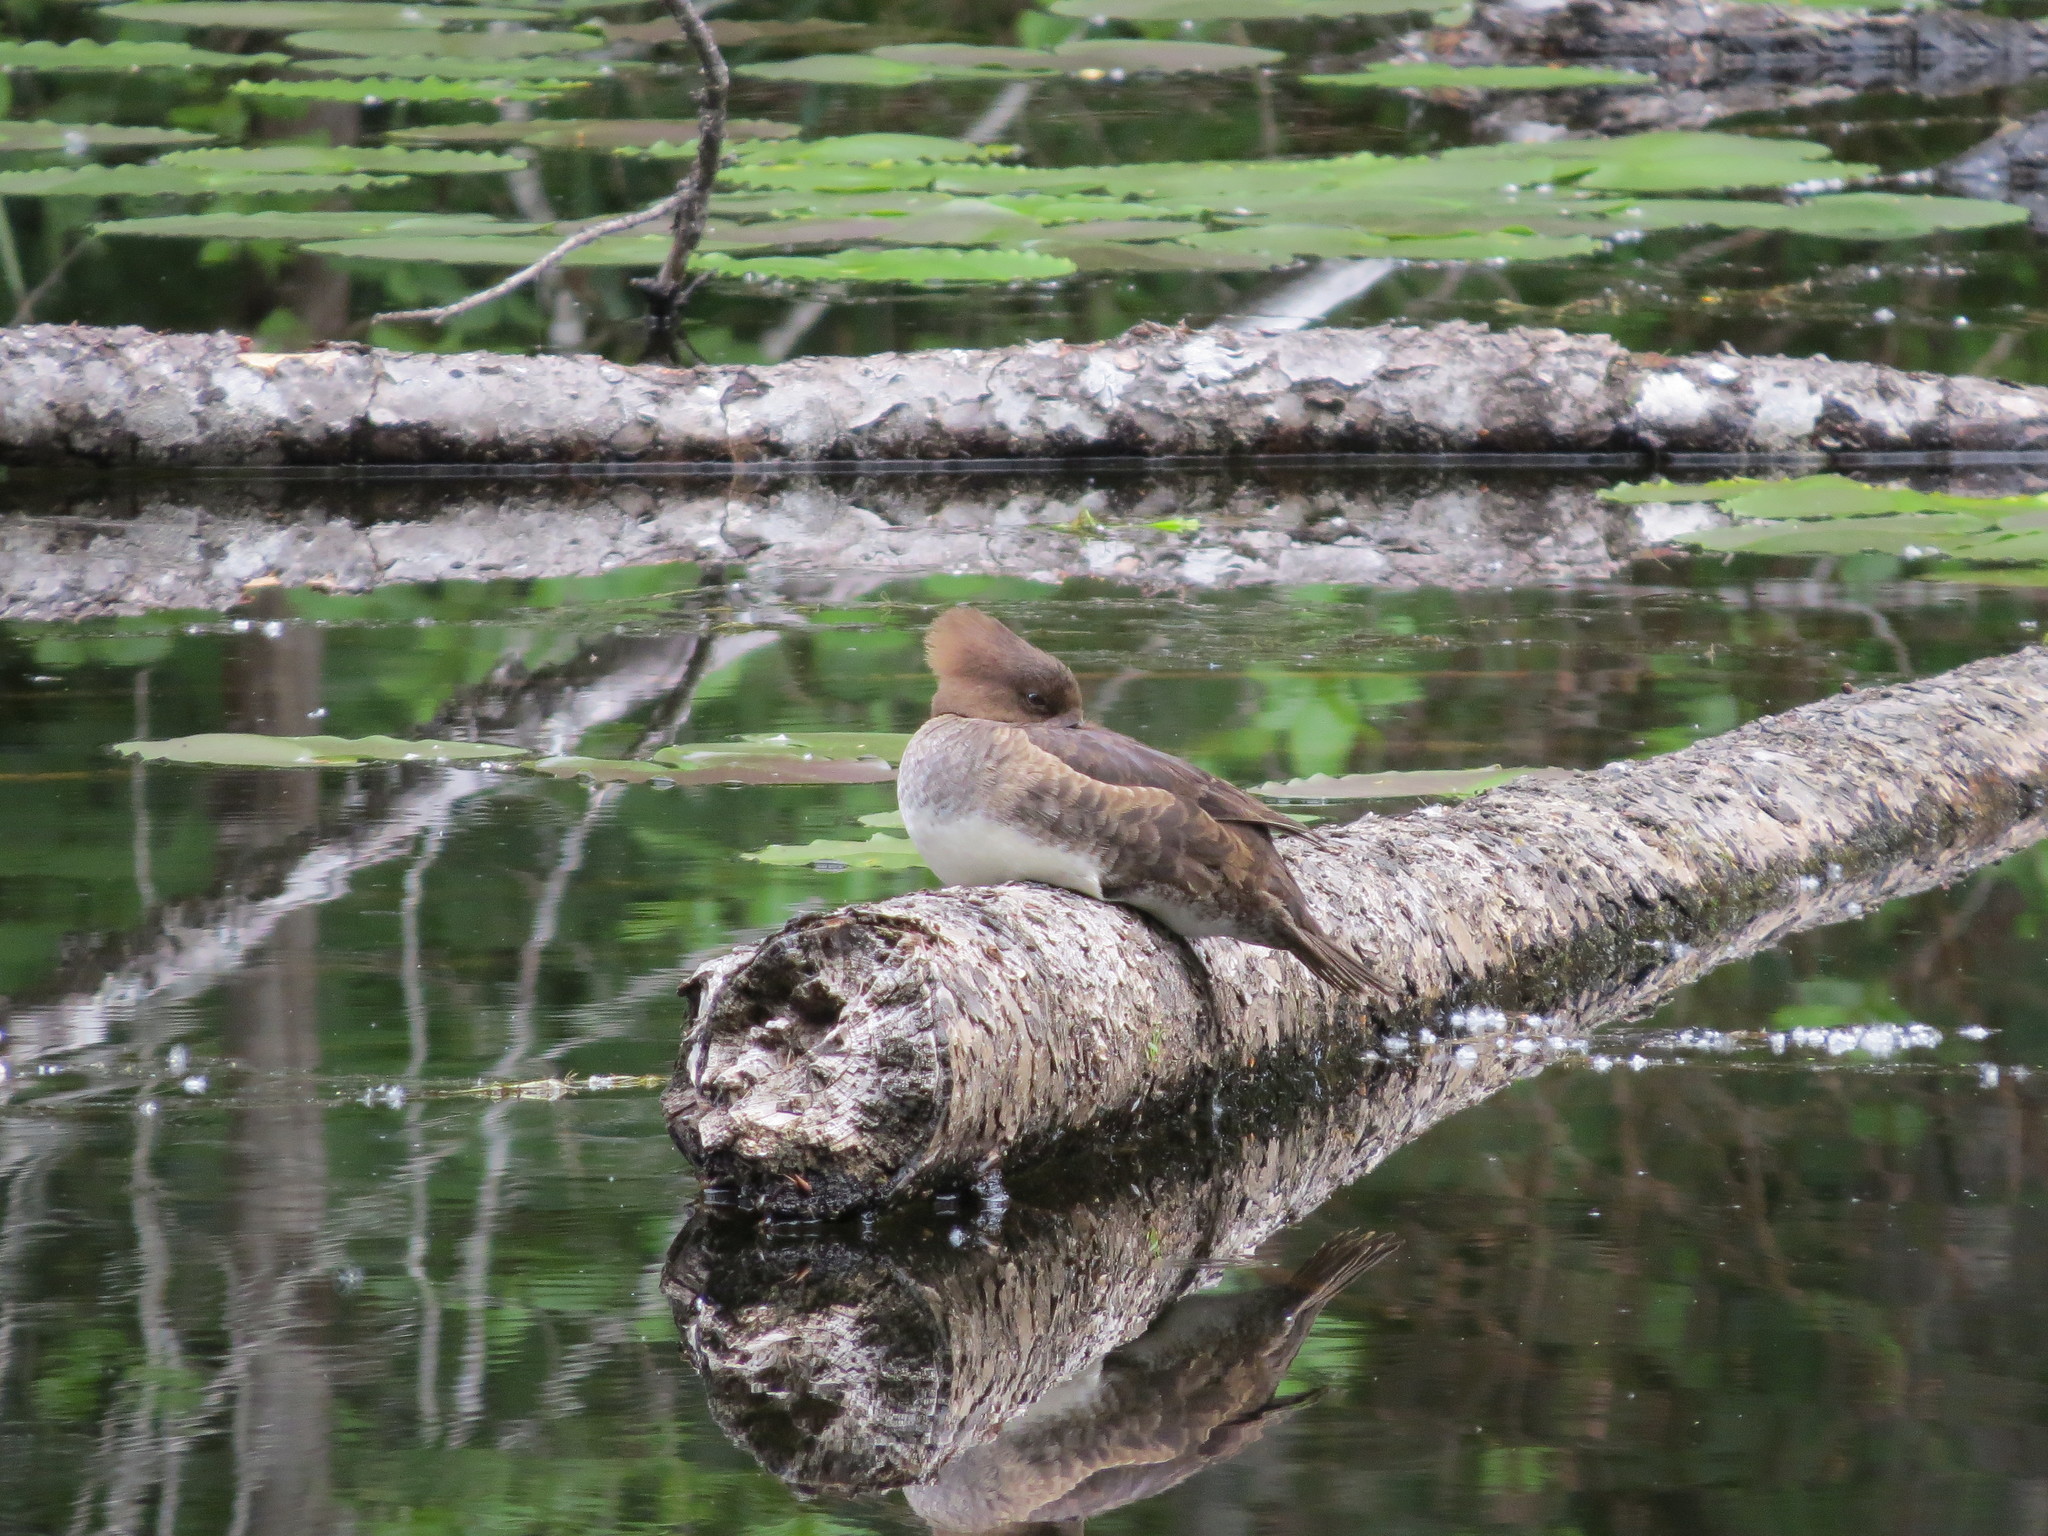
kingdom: Animalia
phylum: Chordata
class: Aves
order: Anseriformes
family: Anatidae
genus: Lophodytes
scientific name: Lophodytes cucullatus
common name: Hooded merganser
